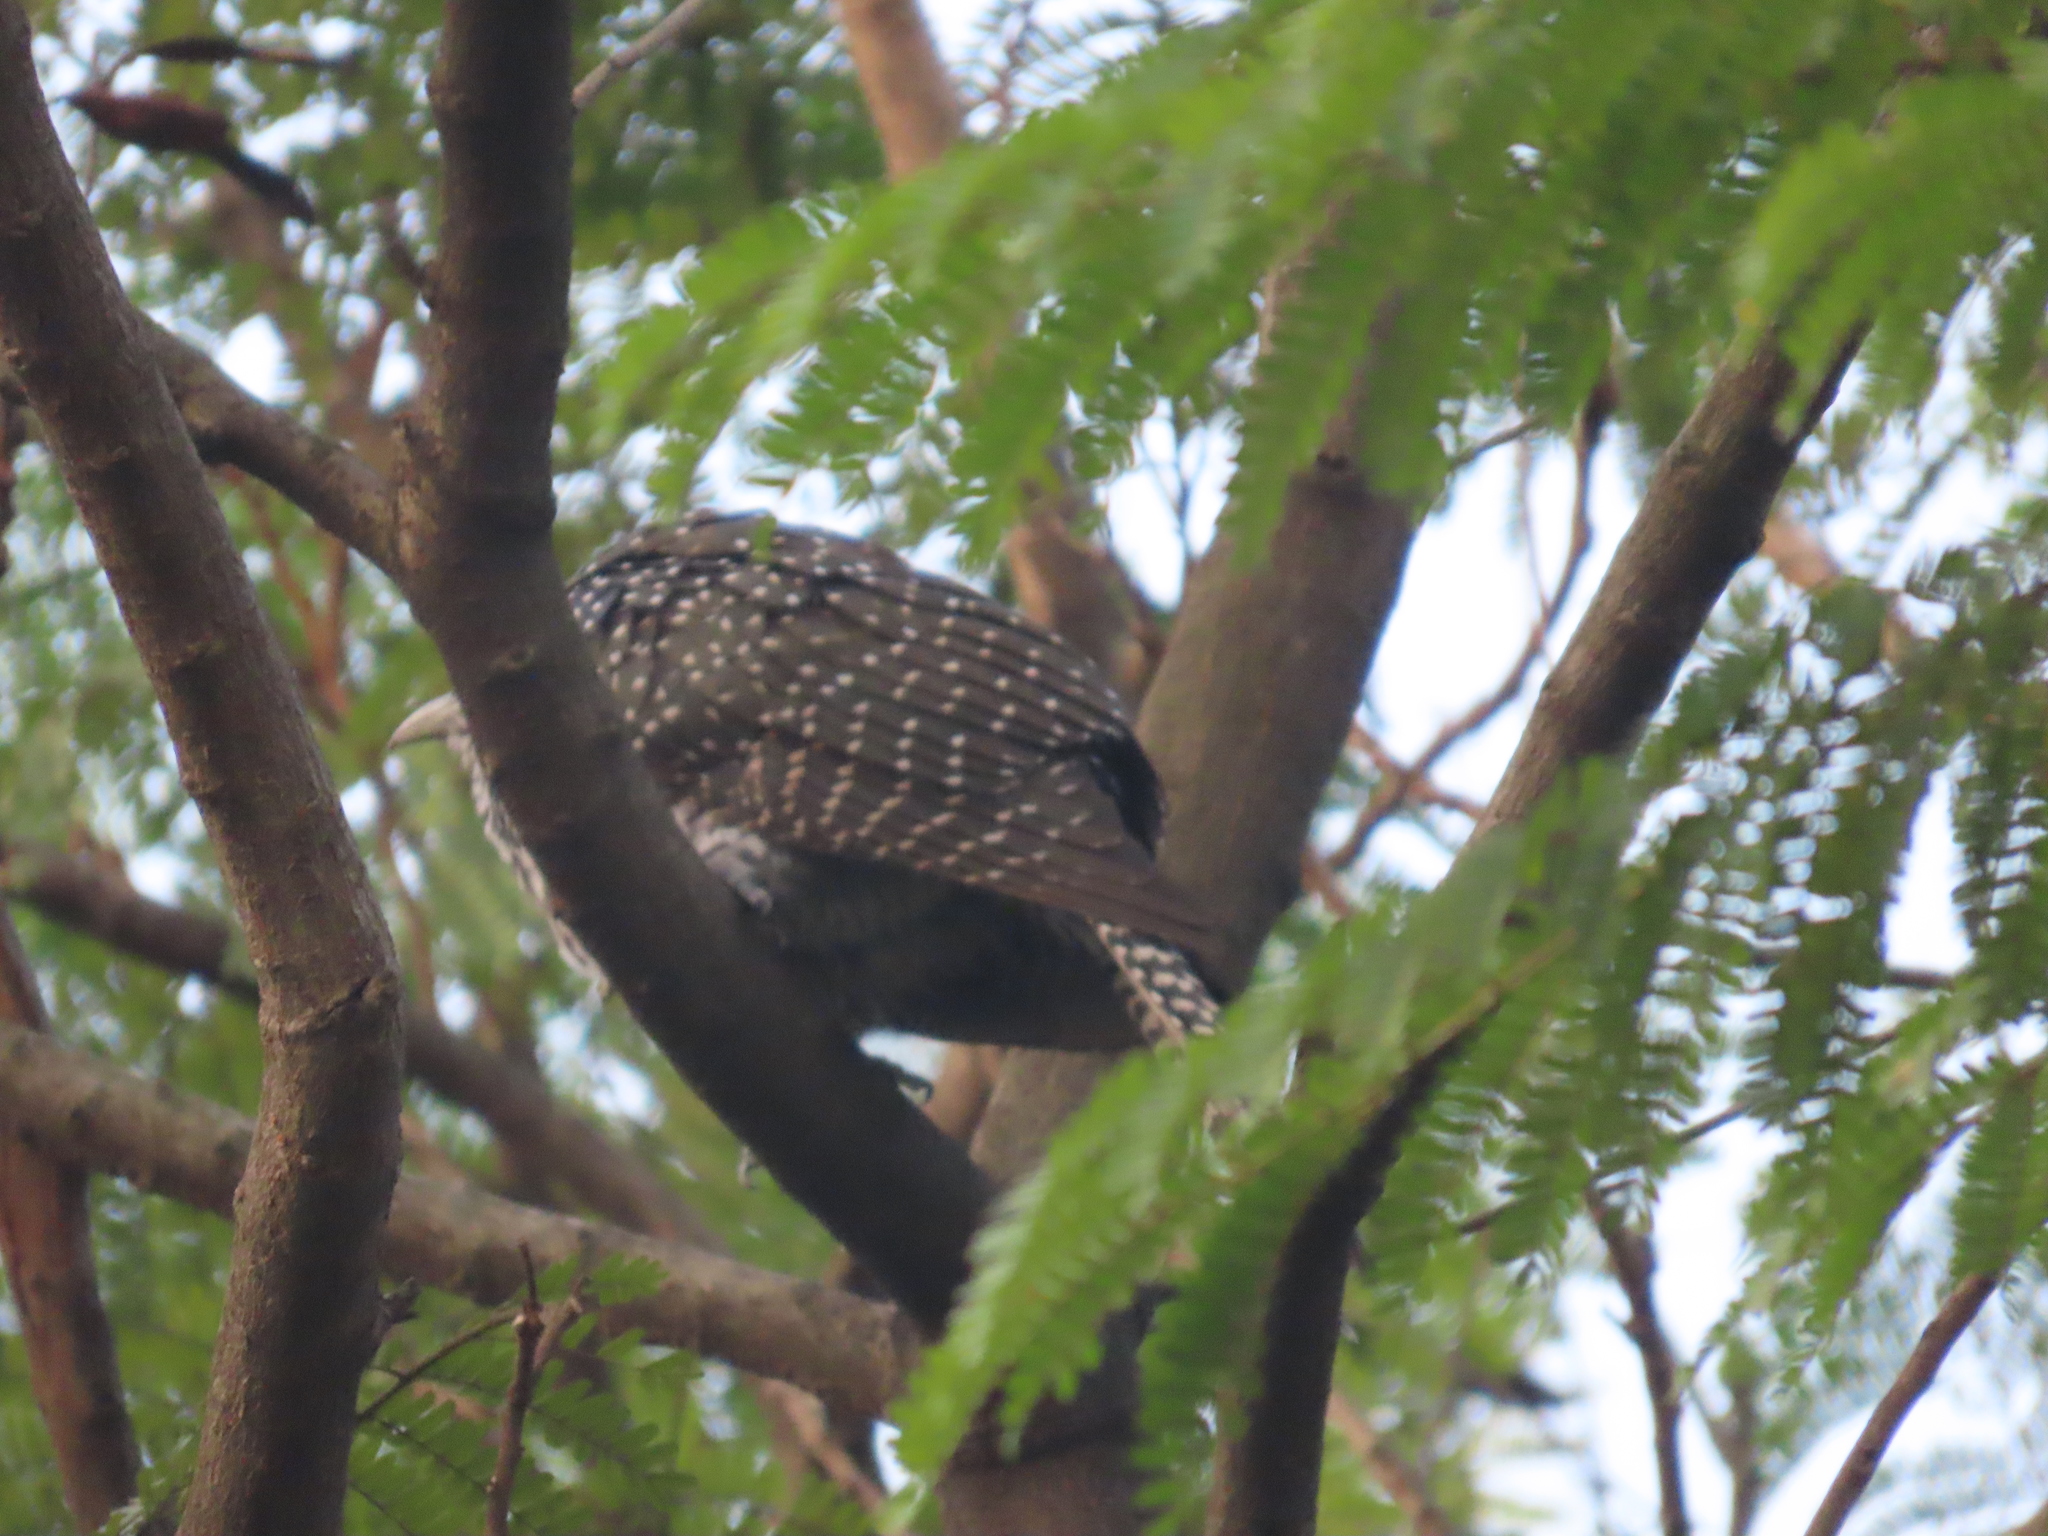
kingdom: Animalia
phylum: Chordata
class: Aves
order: Cuculiformes
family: Cuculidae
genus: Eudynamys
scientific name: Eudynamys scolopaceus
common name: Asian koel
